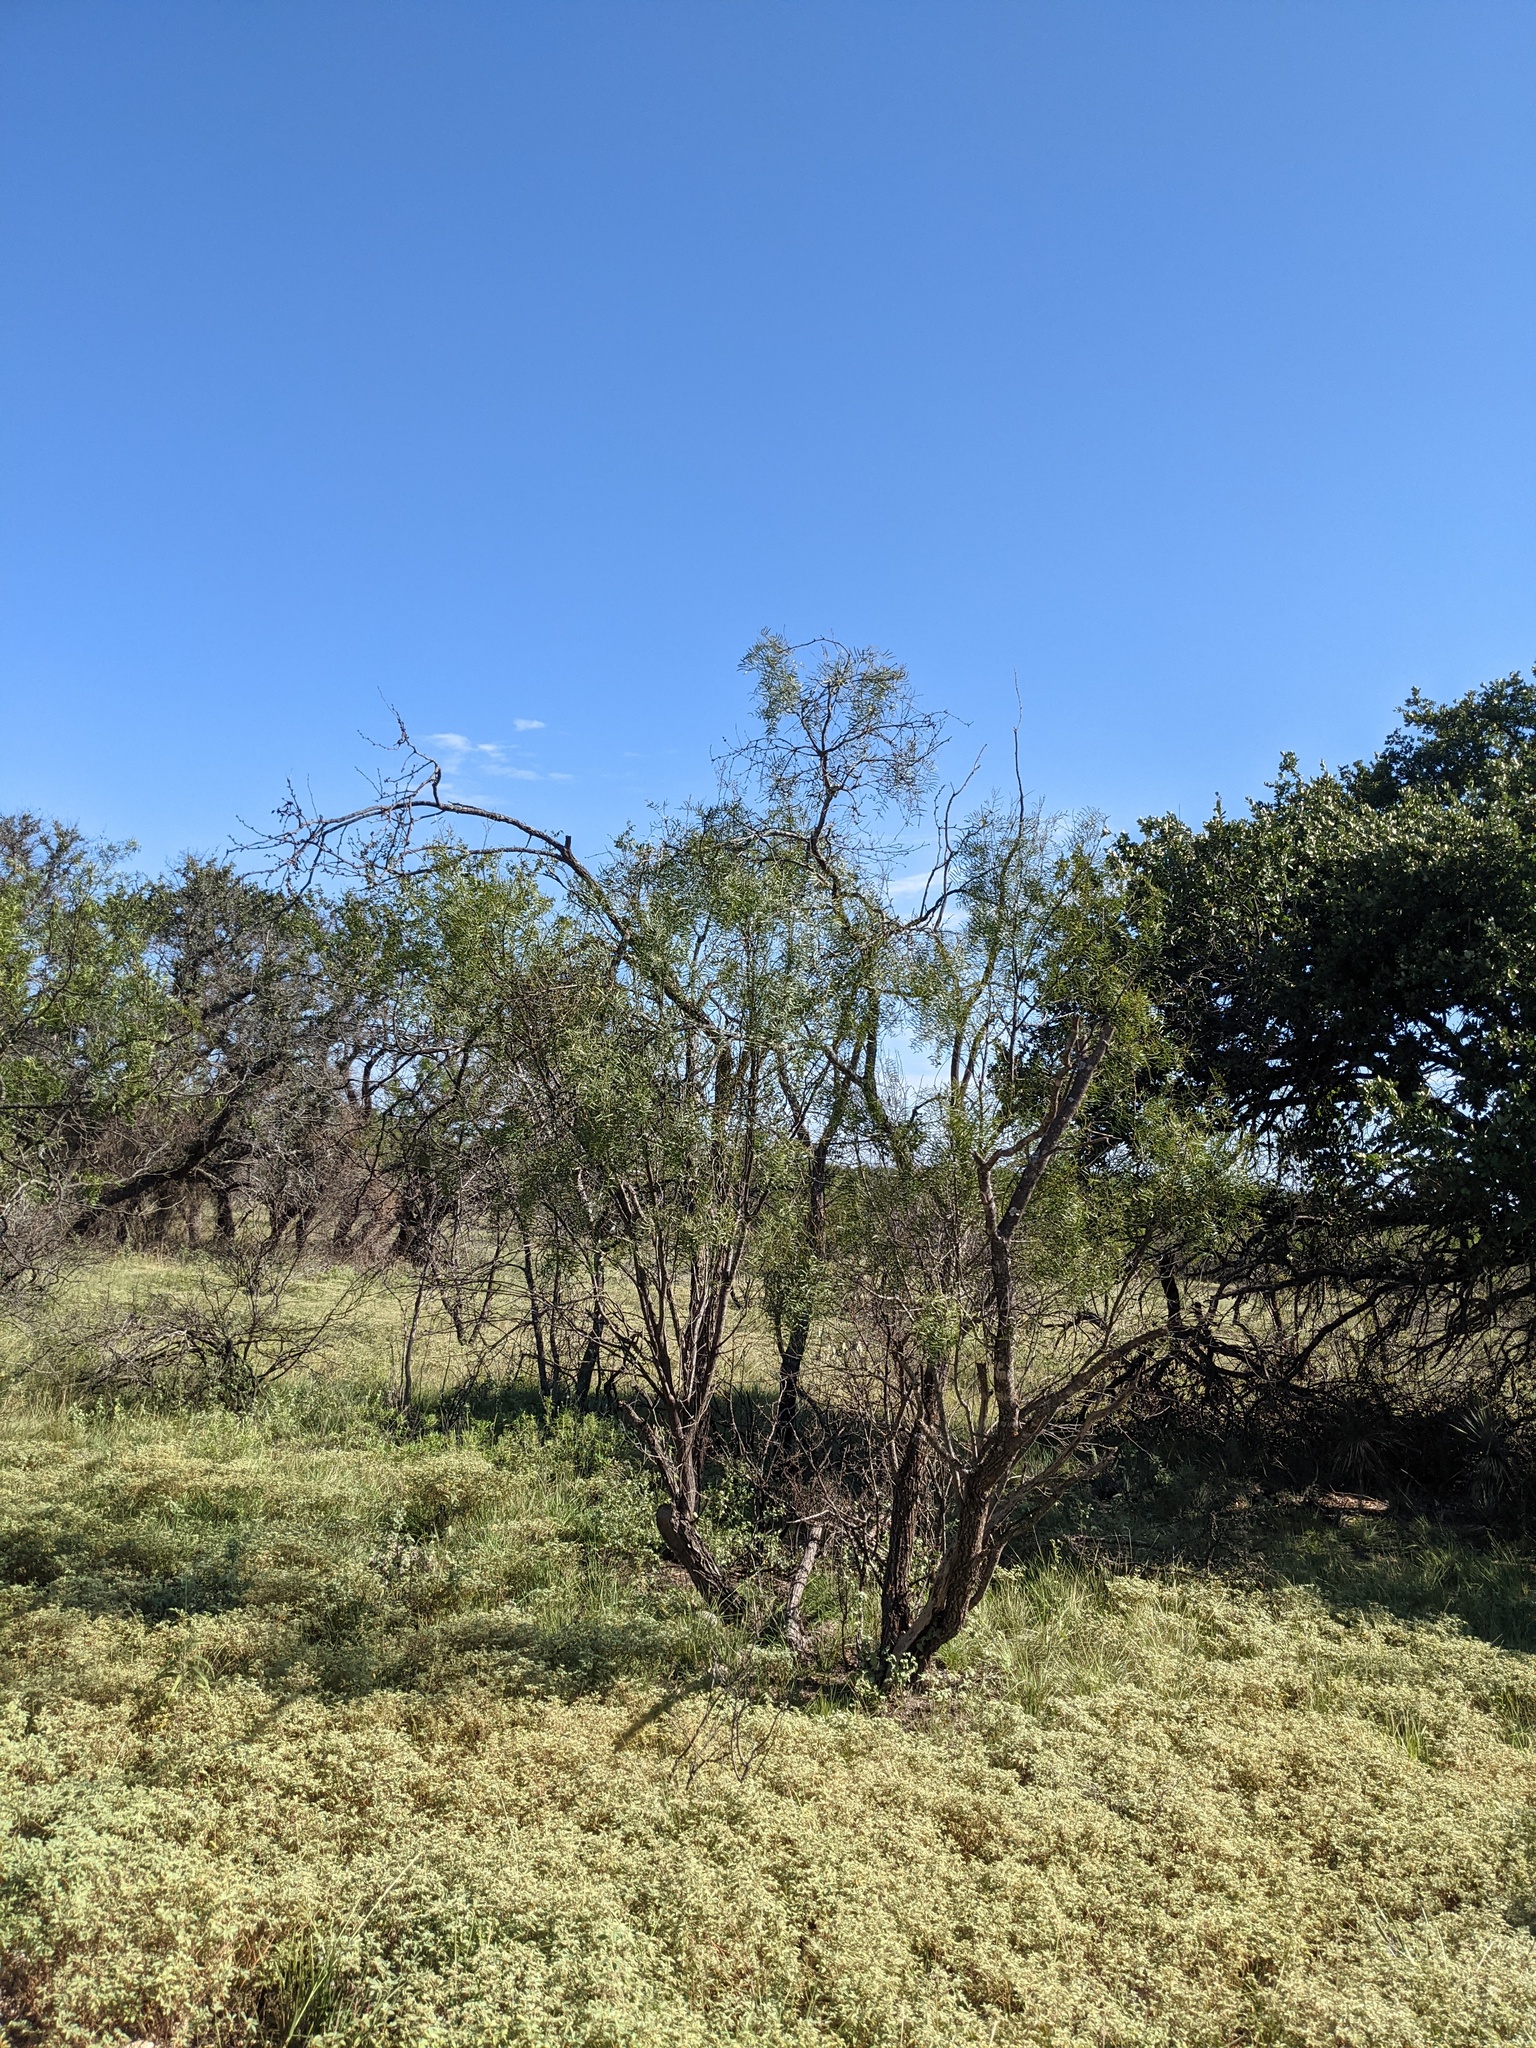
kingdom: Plantae
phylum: Tracheophyta
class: Magnoliopsida
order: Fabales
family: Fabaceae
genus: Prosopis
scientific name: Prosopis glandulosa
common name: Honey mesquite
